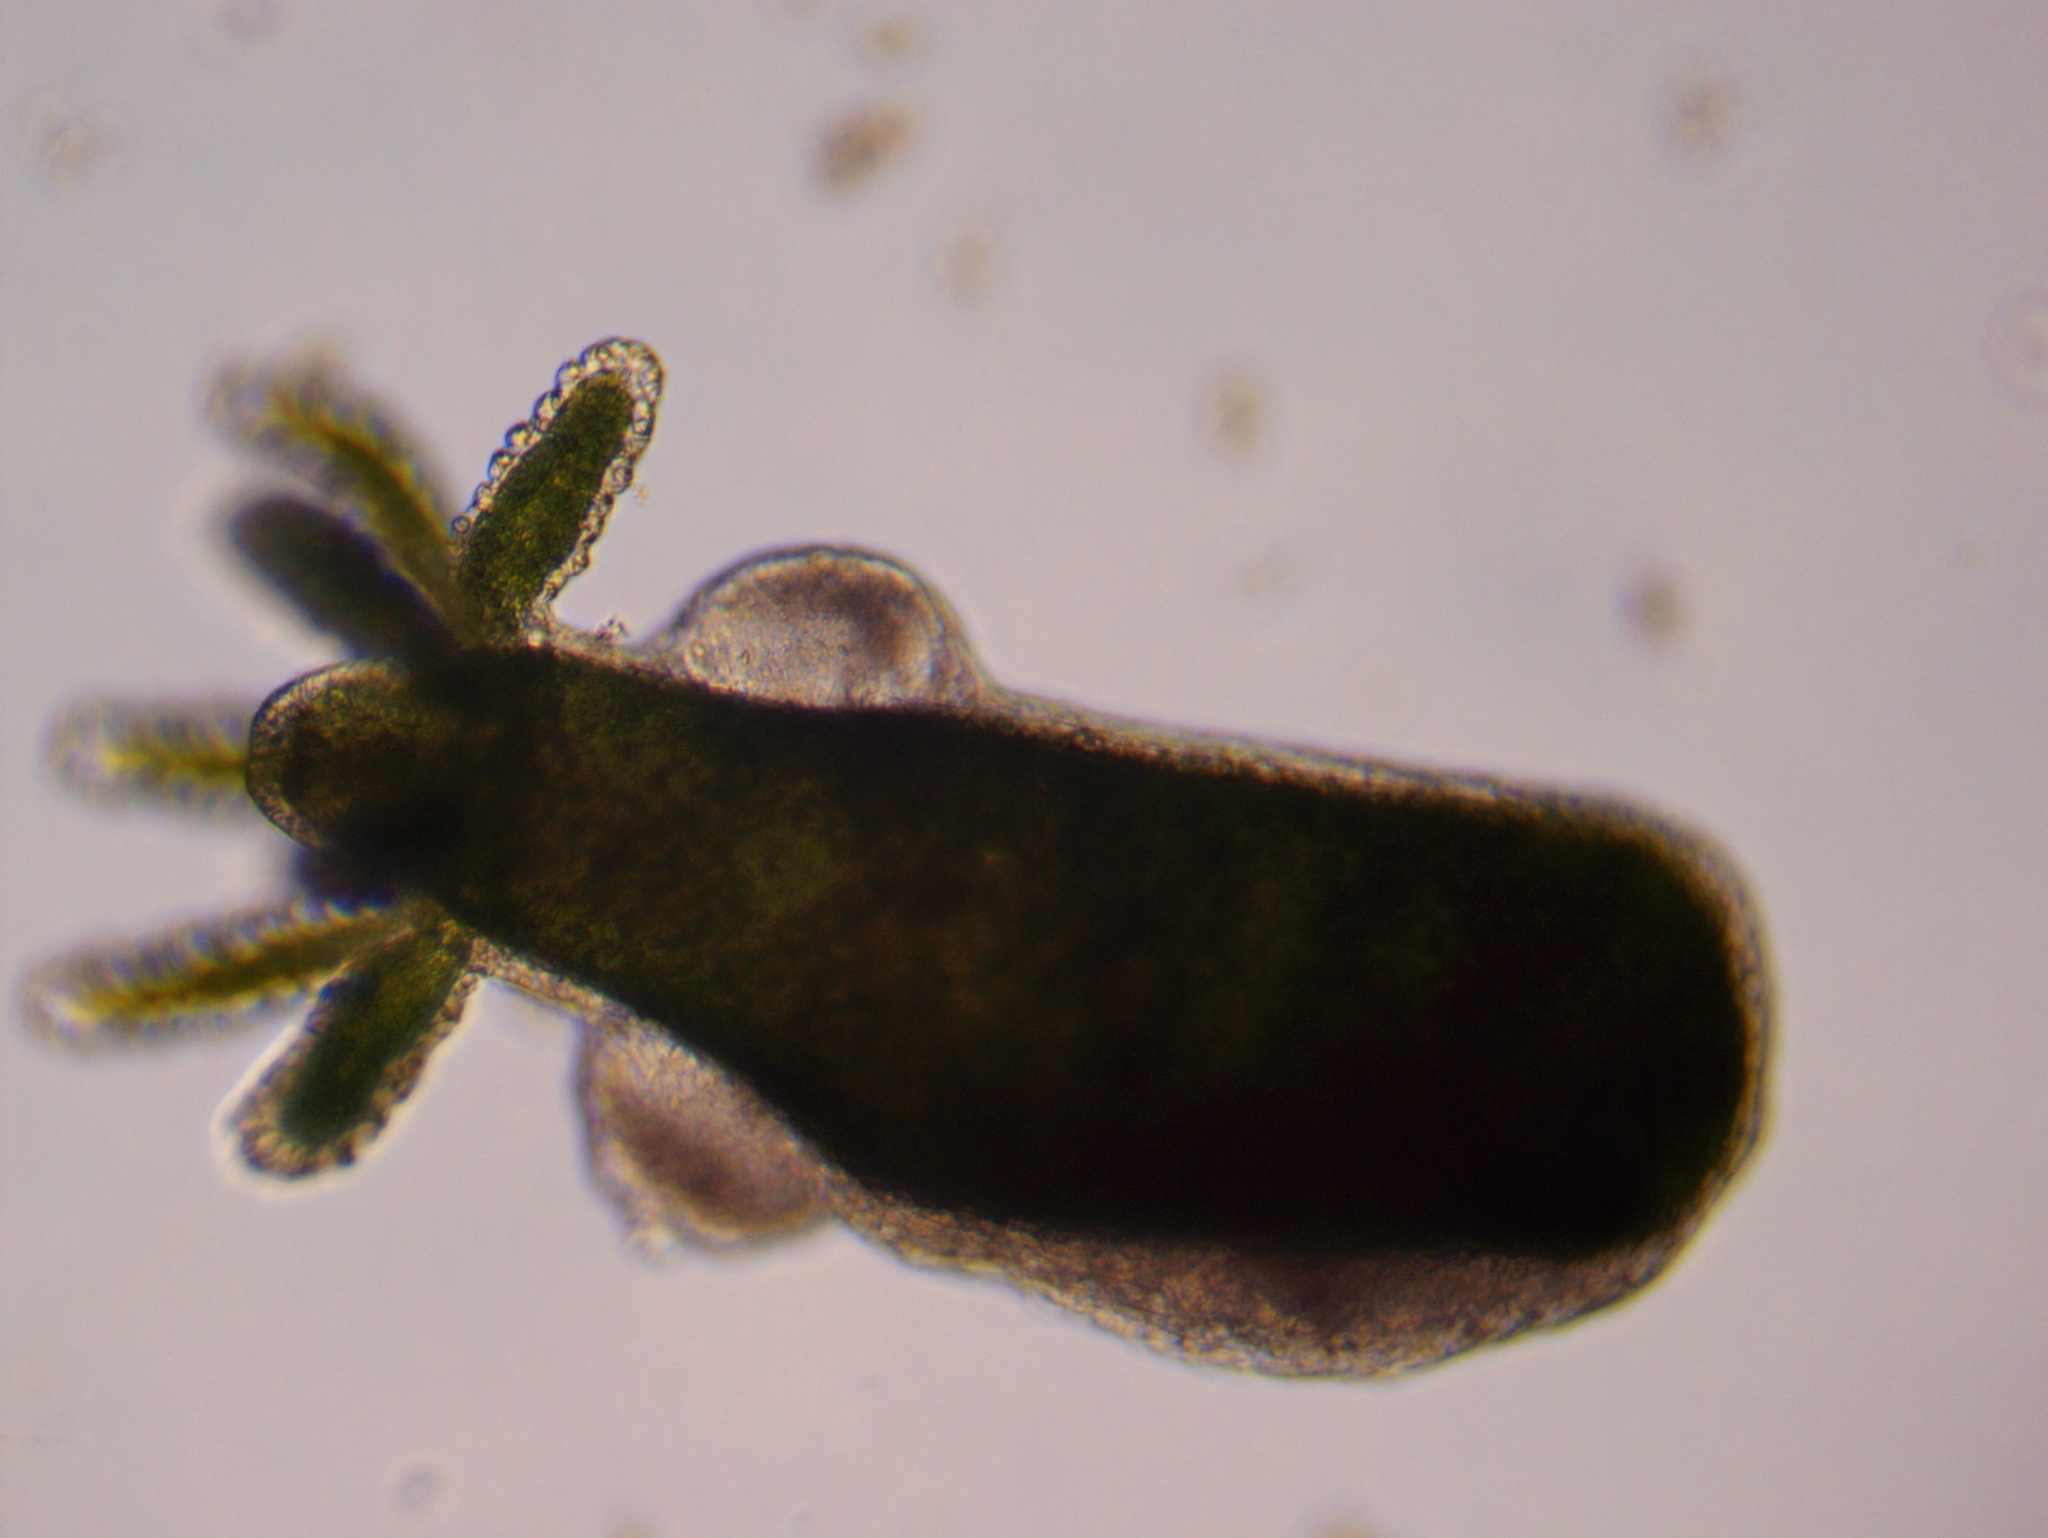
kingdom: Animalia
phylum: Cnidaria
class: Hydrozoa
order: Anthoathecata
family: Hydridae
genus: Hydra
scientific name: Hydra viridissima
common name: Green hydra
